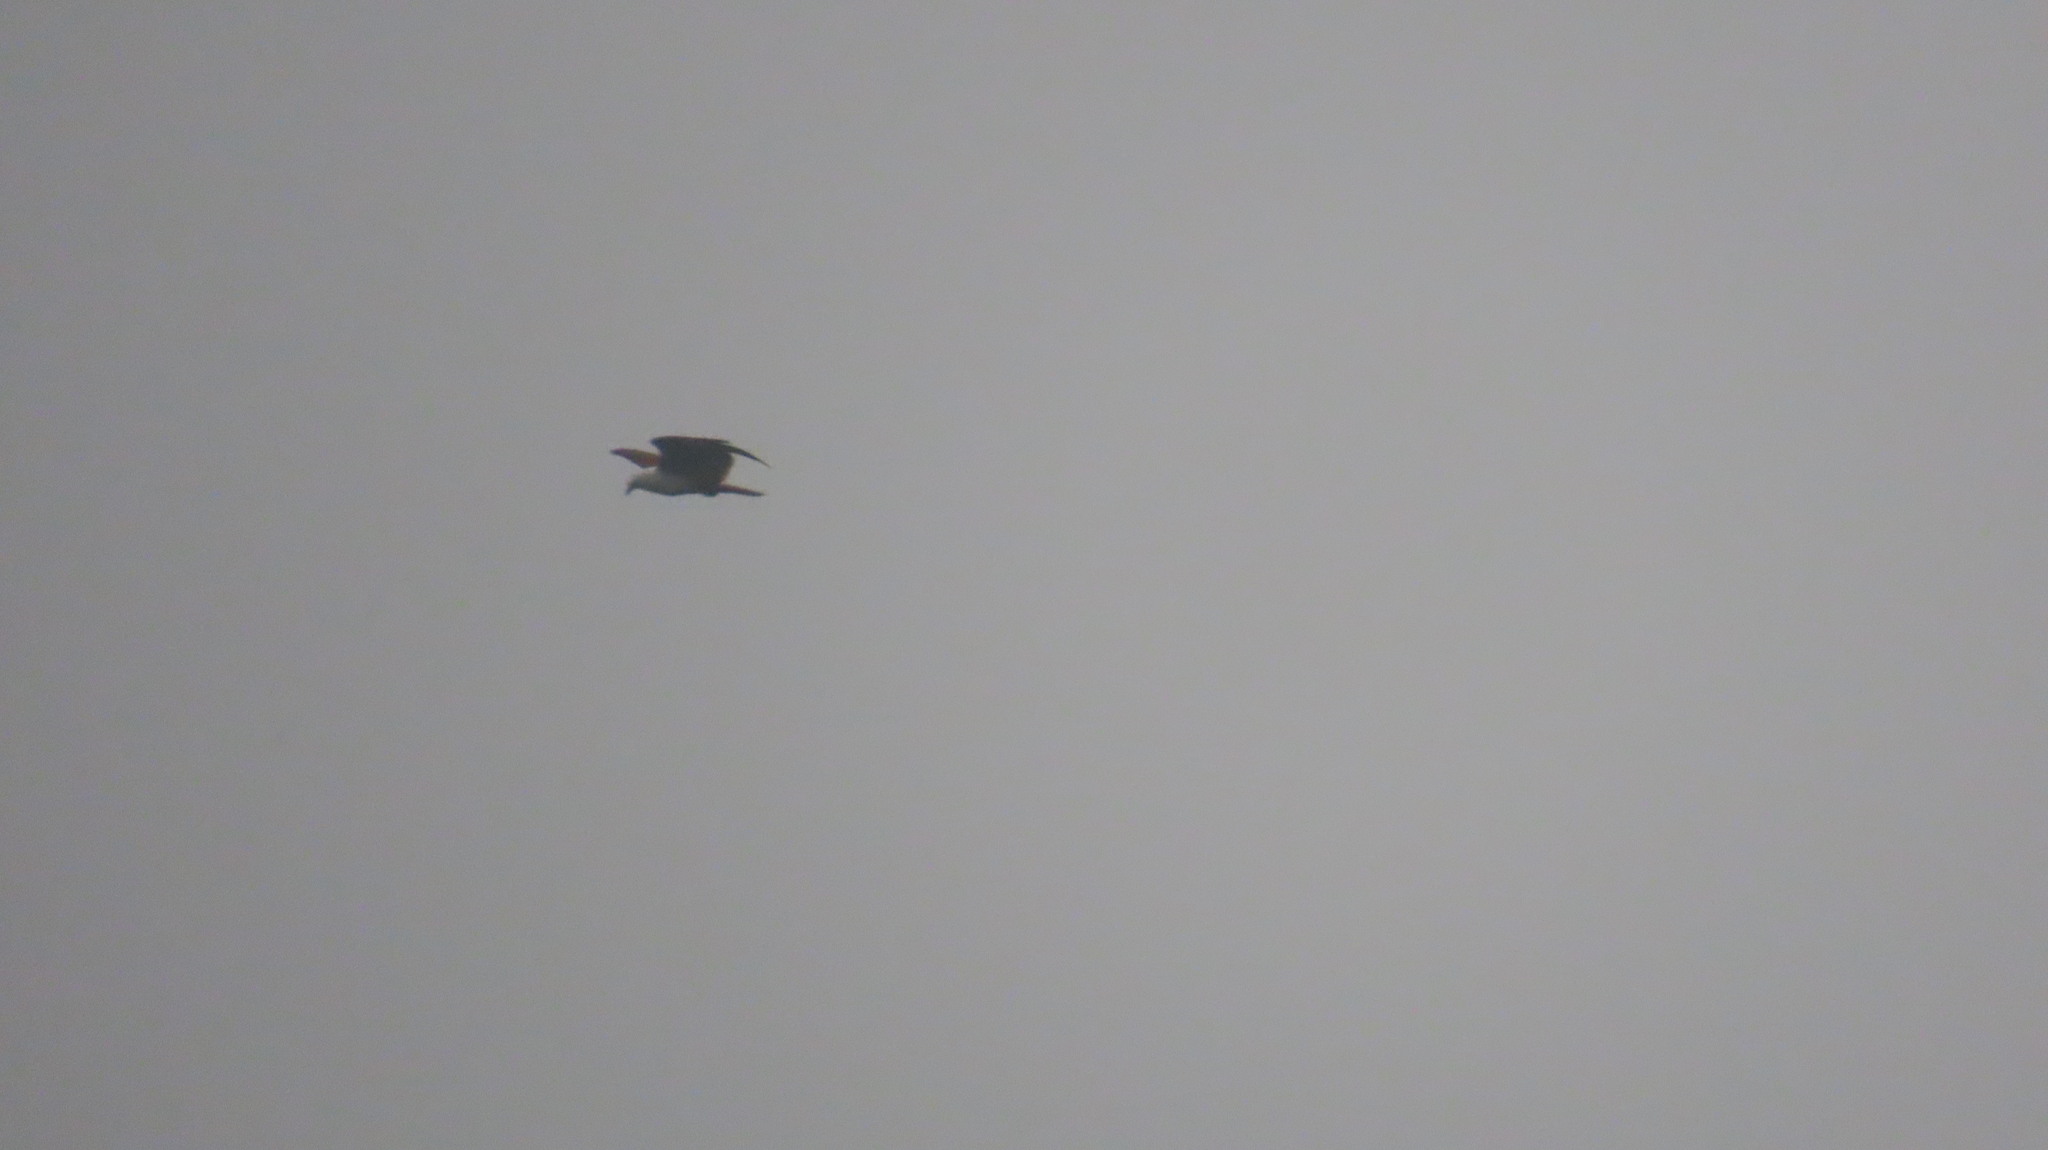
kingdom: Animalia
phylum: Chordata
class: Aves
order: Accipitriformes
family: Accipitridae
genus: Haliastur
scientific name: Haliastur indus
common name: Brahminy kite
